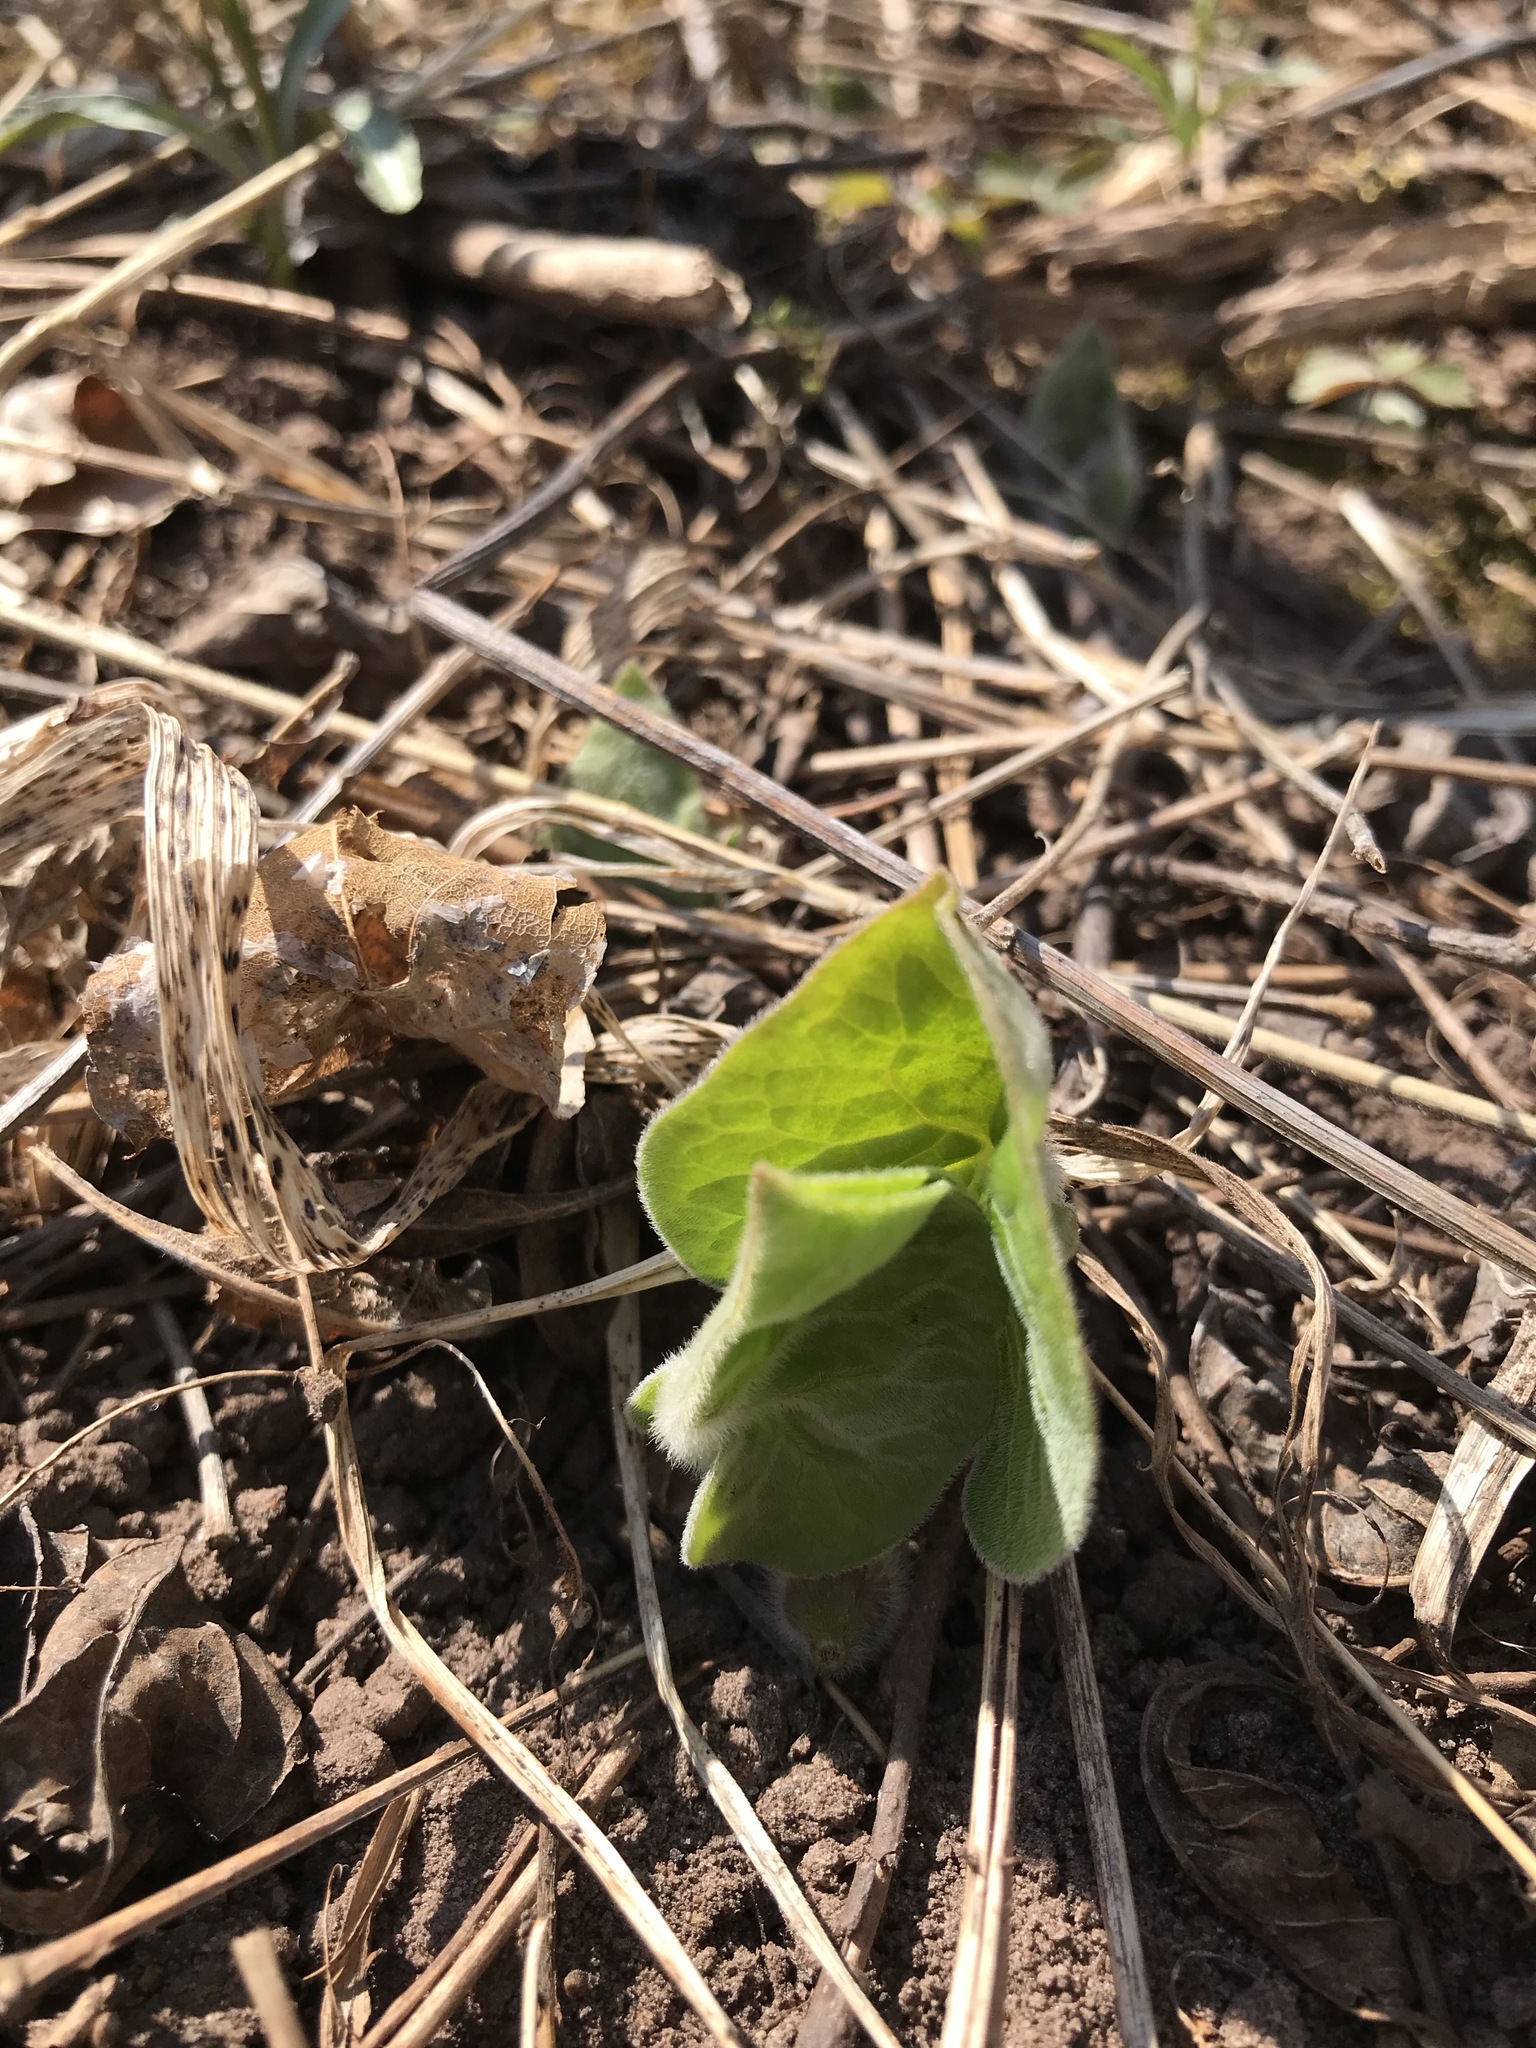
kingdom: Plantae
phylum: Tracheophyta
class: Magnoliopsida
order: Piperales
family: Aristolochiaceae
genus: Asarum
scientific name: Asarum canadense
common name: Wild ginger
